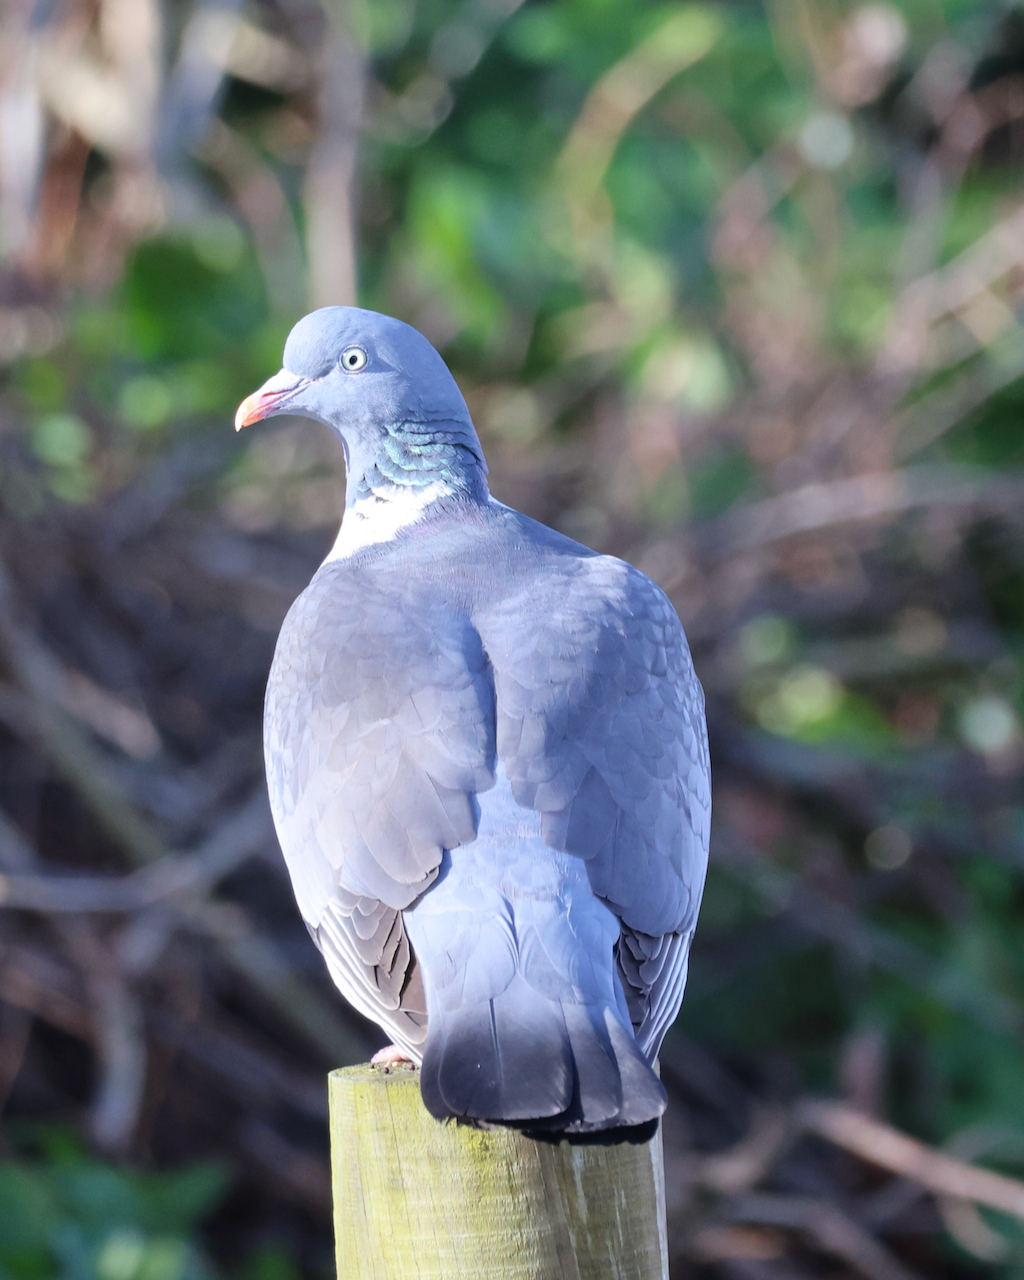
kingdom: Animalia
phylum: Chordata
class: Aves
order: Columbiformes
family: Columbidae
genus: Columba
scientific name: Columba palumbus
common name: Common wood pigeon
